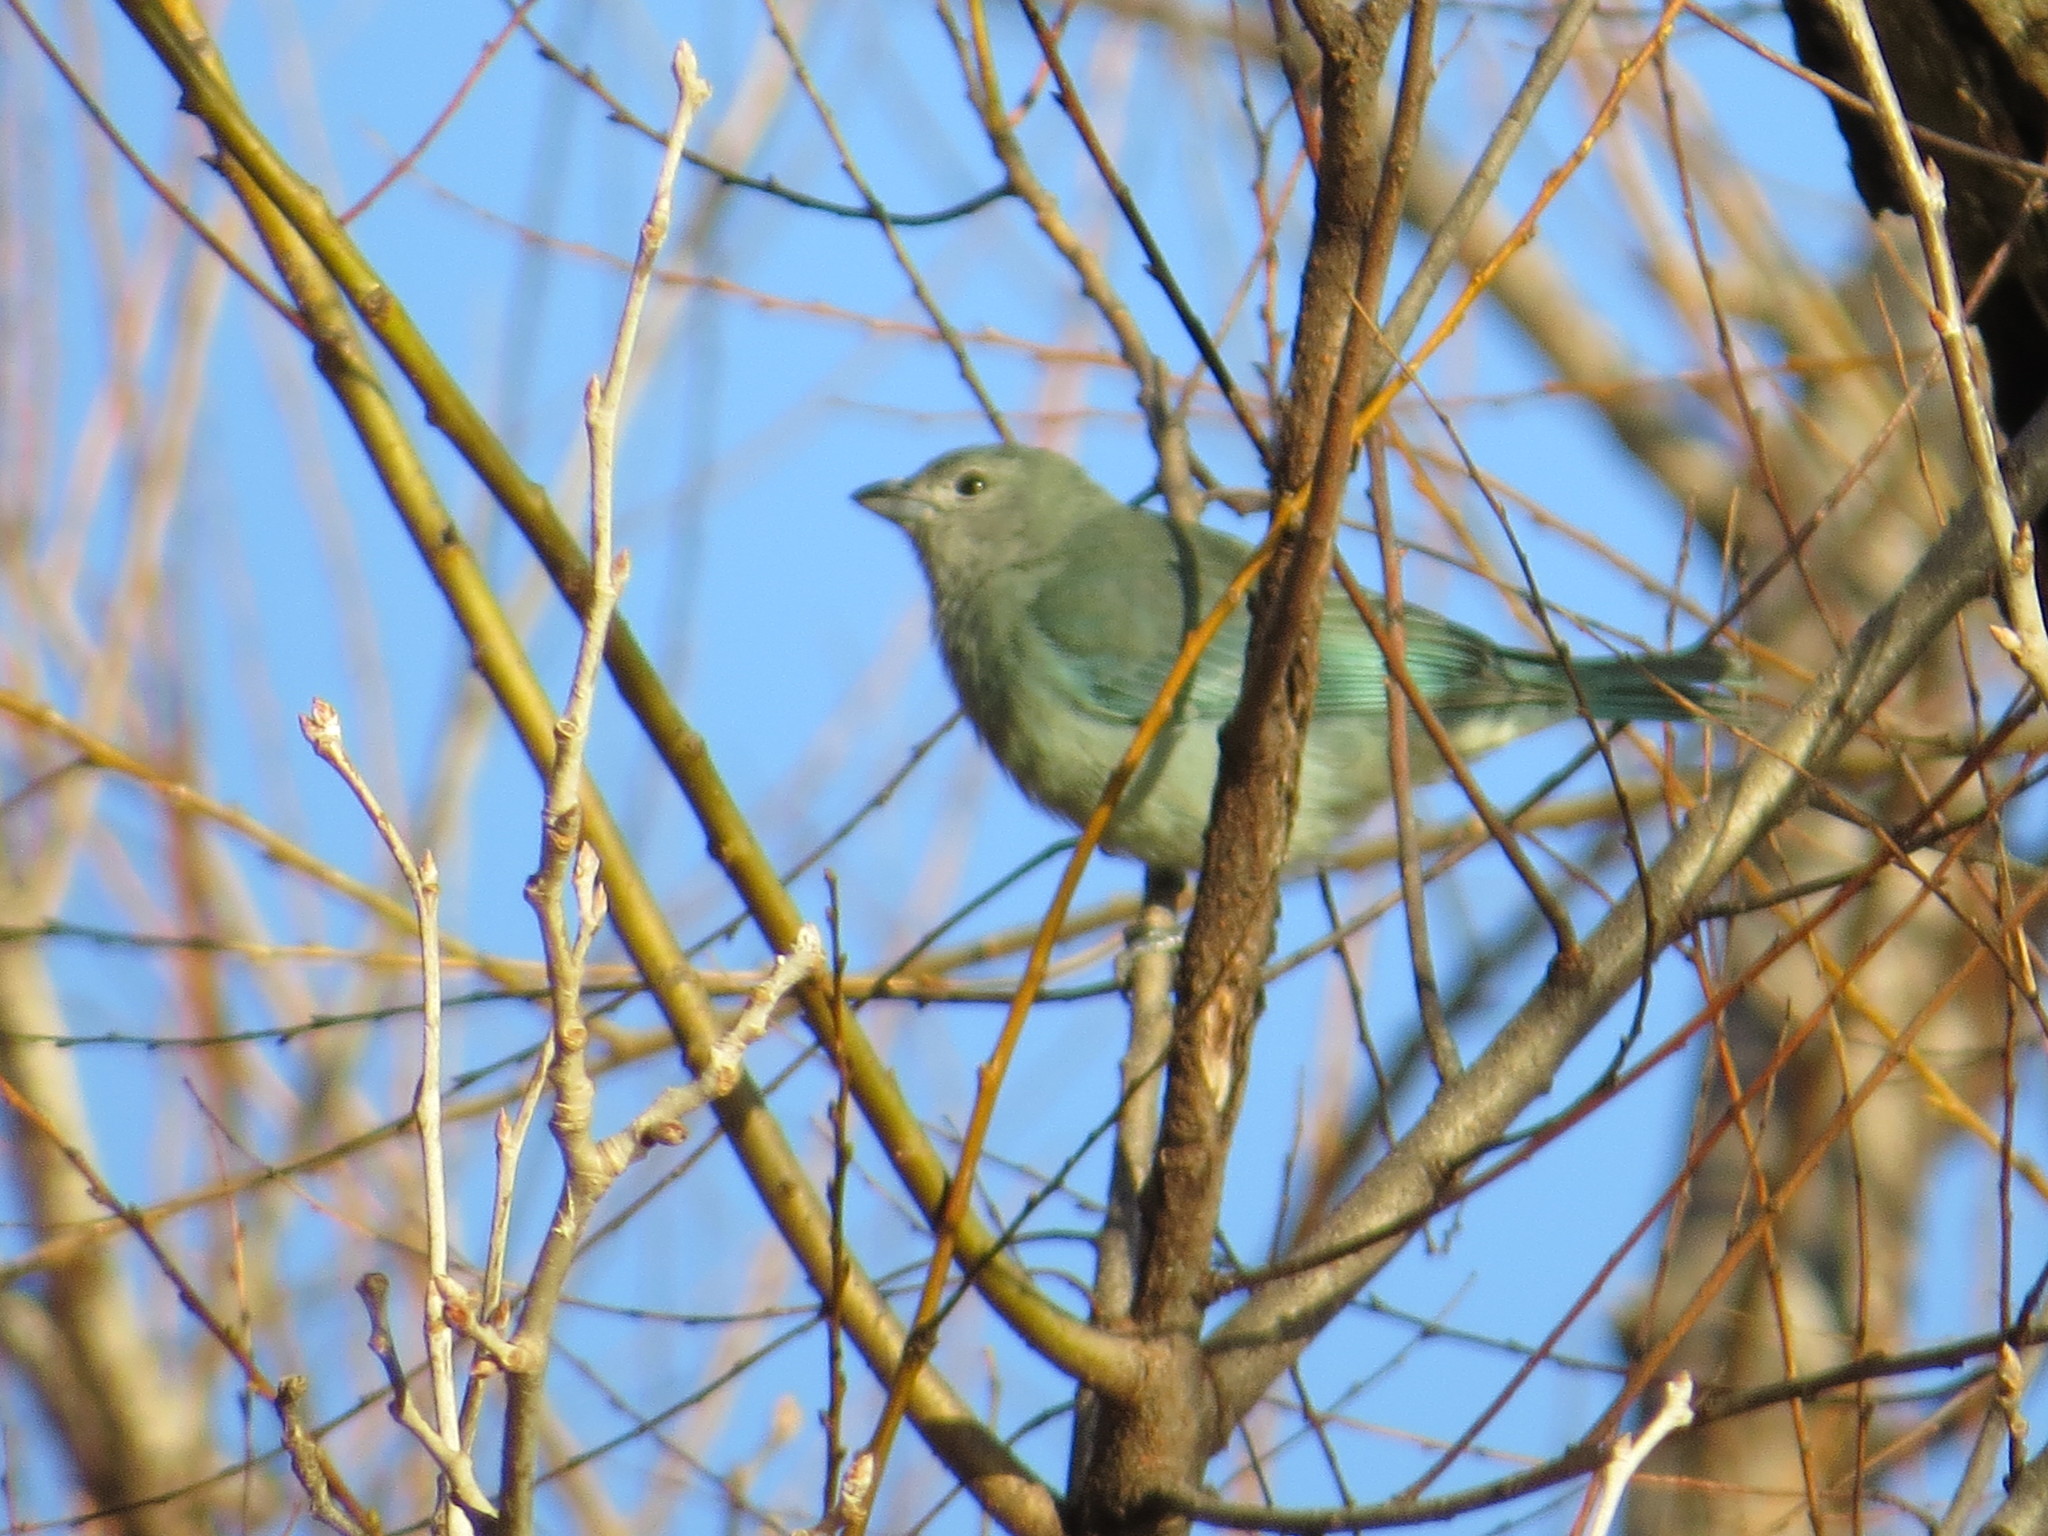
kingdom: Animalia
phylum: Chordata
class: Aves
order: Passeriformes
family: Thraupidae
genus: Thraupis
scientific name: Thraupis sayaca
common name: Sayaca tanager
